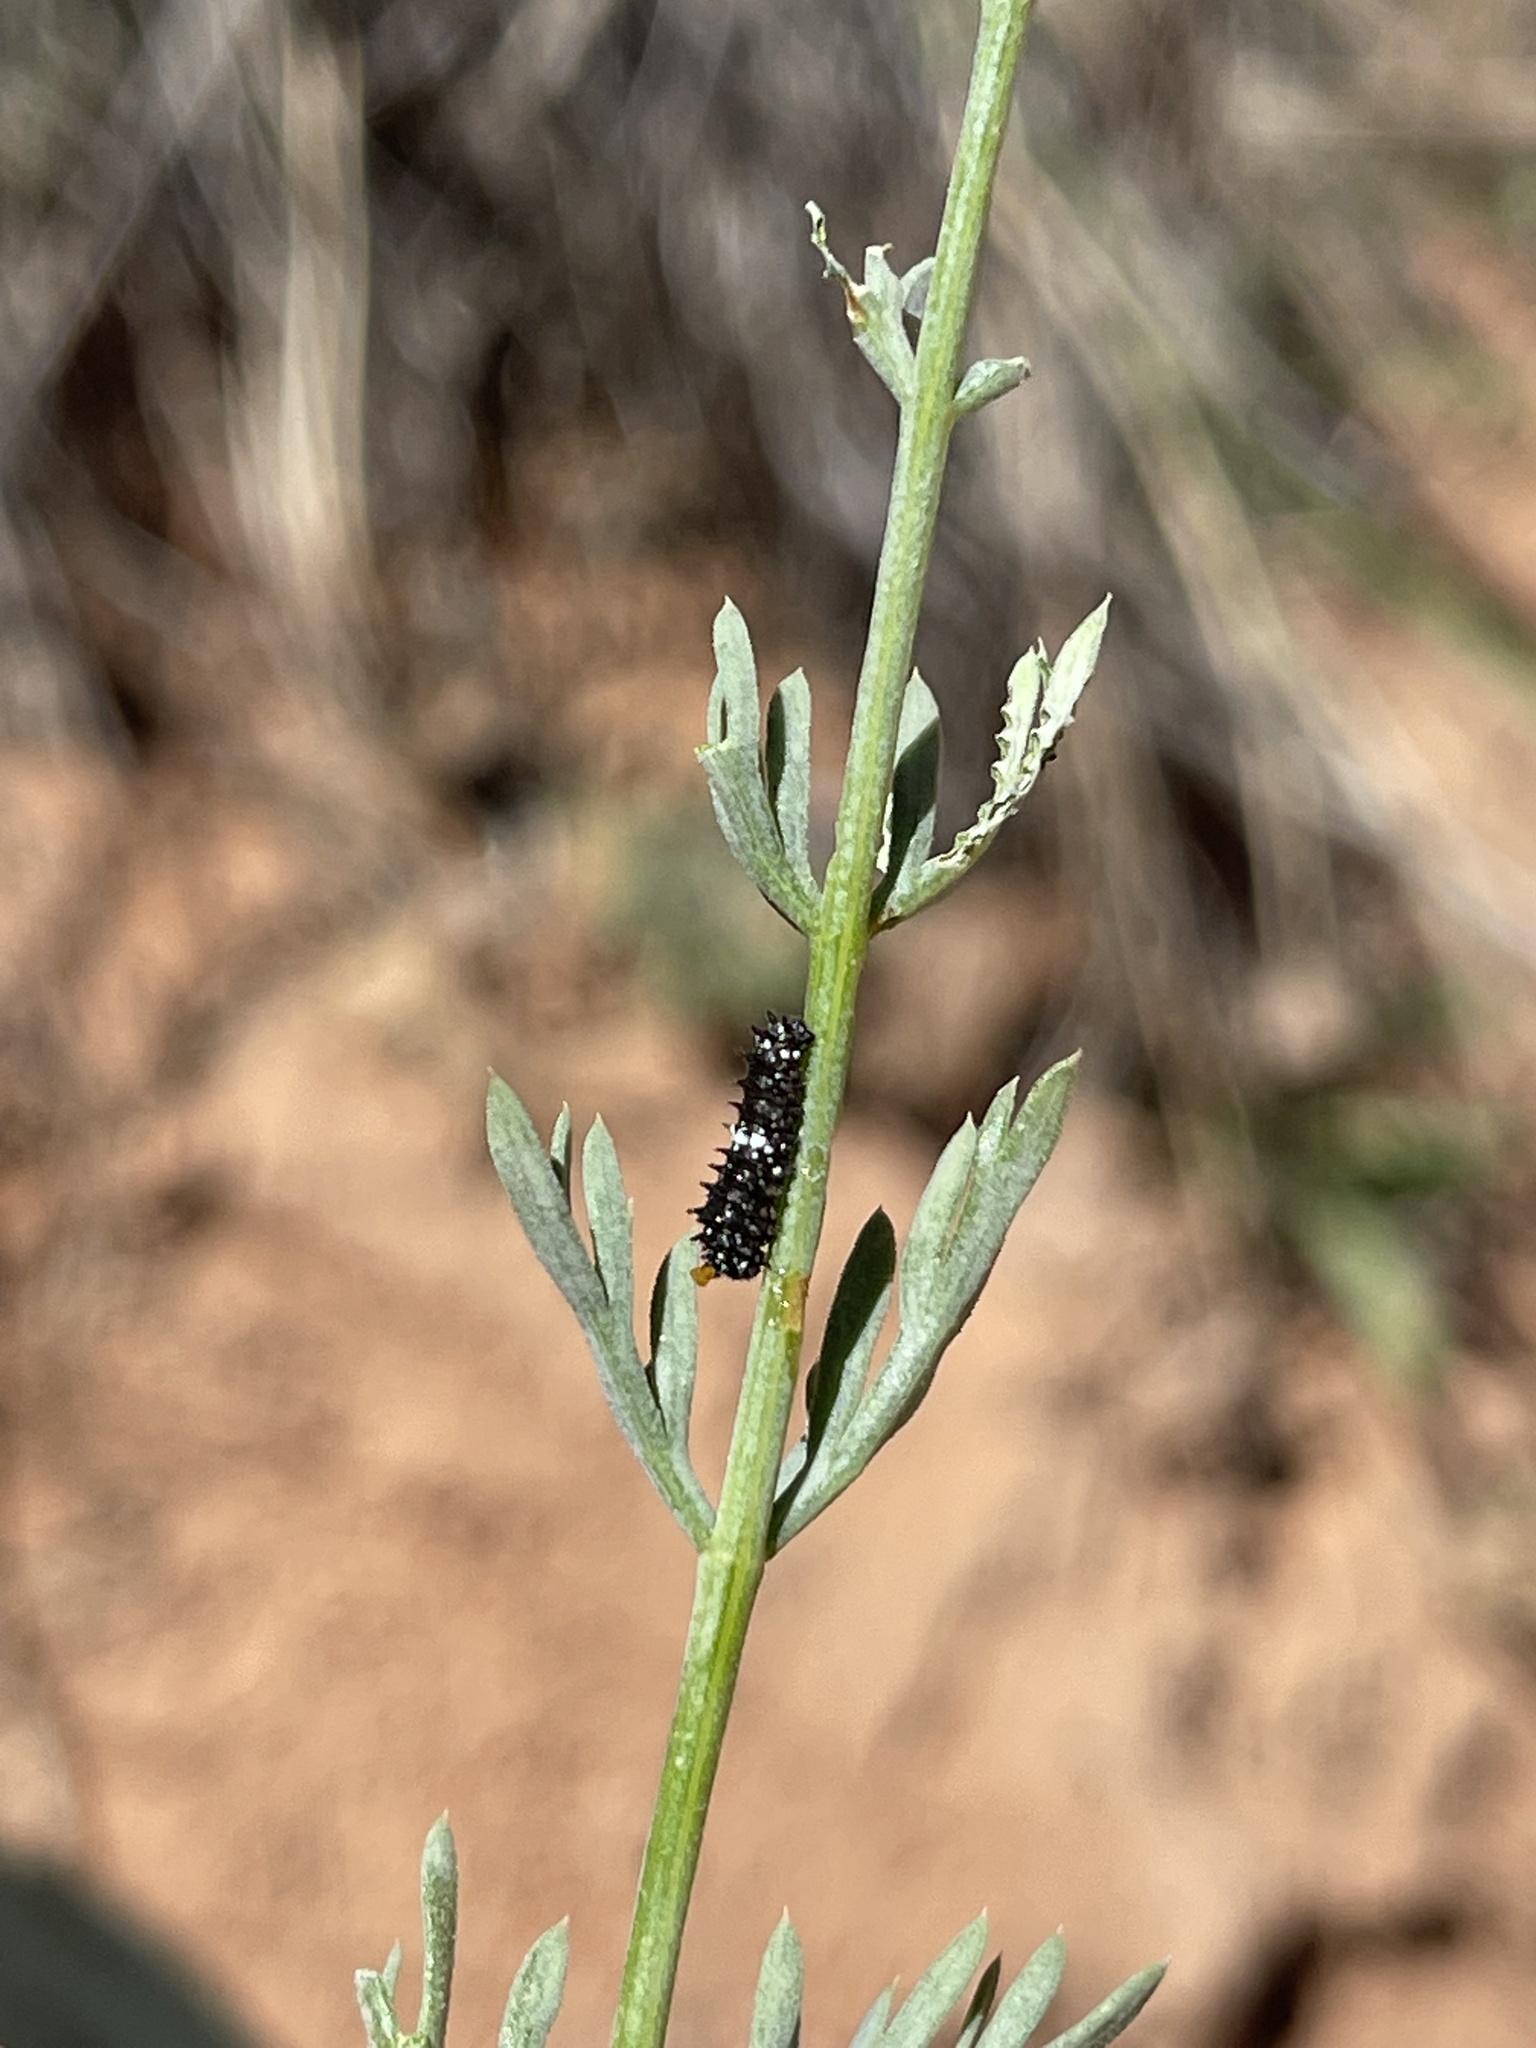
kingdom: Animalia
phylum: Arthropoda
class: Insecta
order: Lepidoptera
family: Papilionidae
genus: Papilio
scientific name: Papilio indra
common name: Cliff swallowtail
